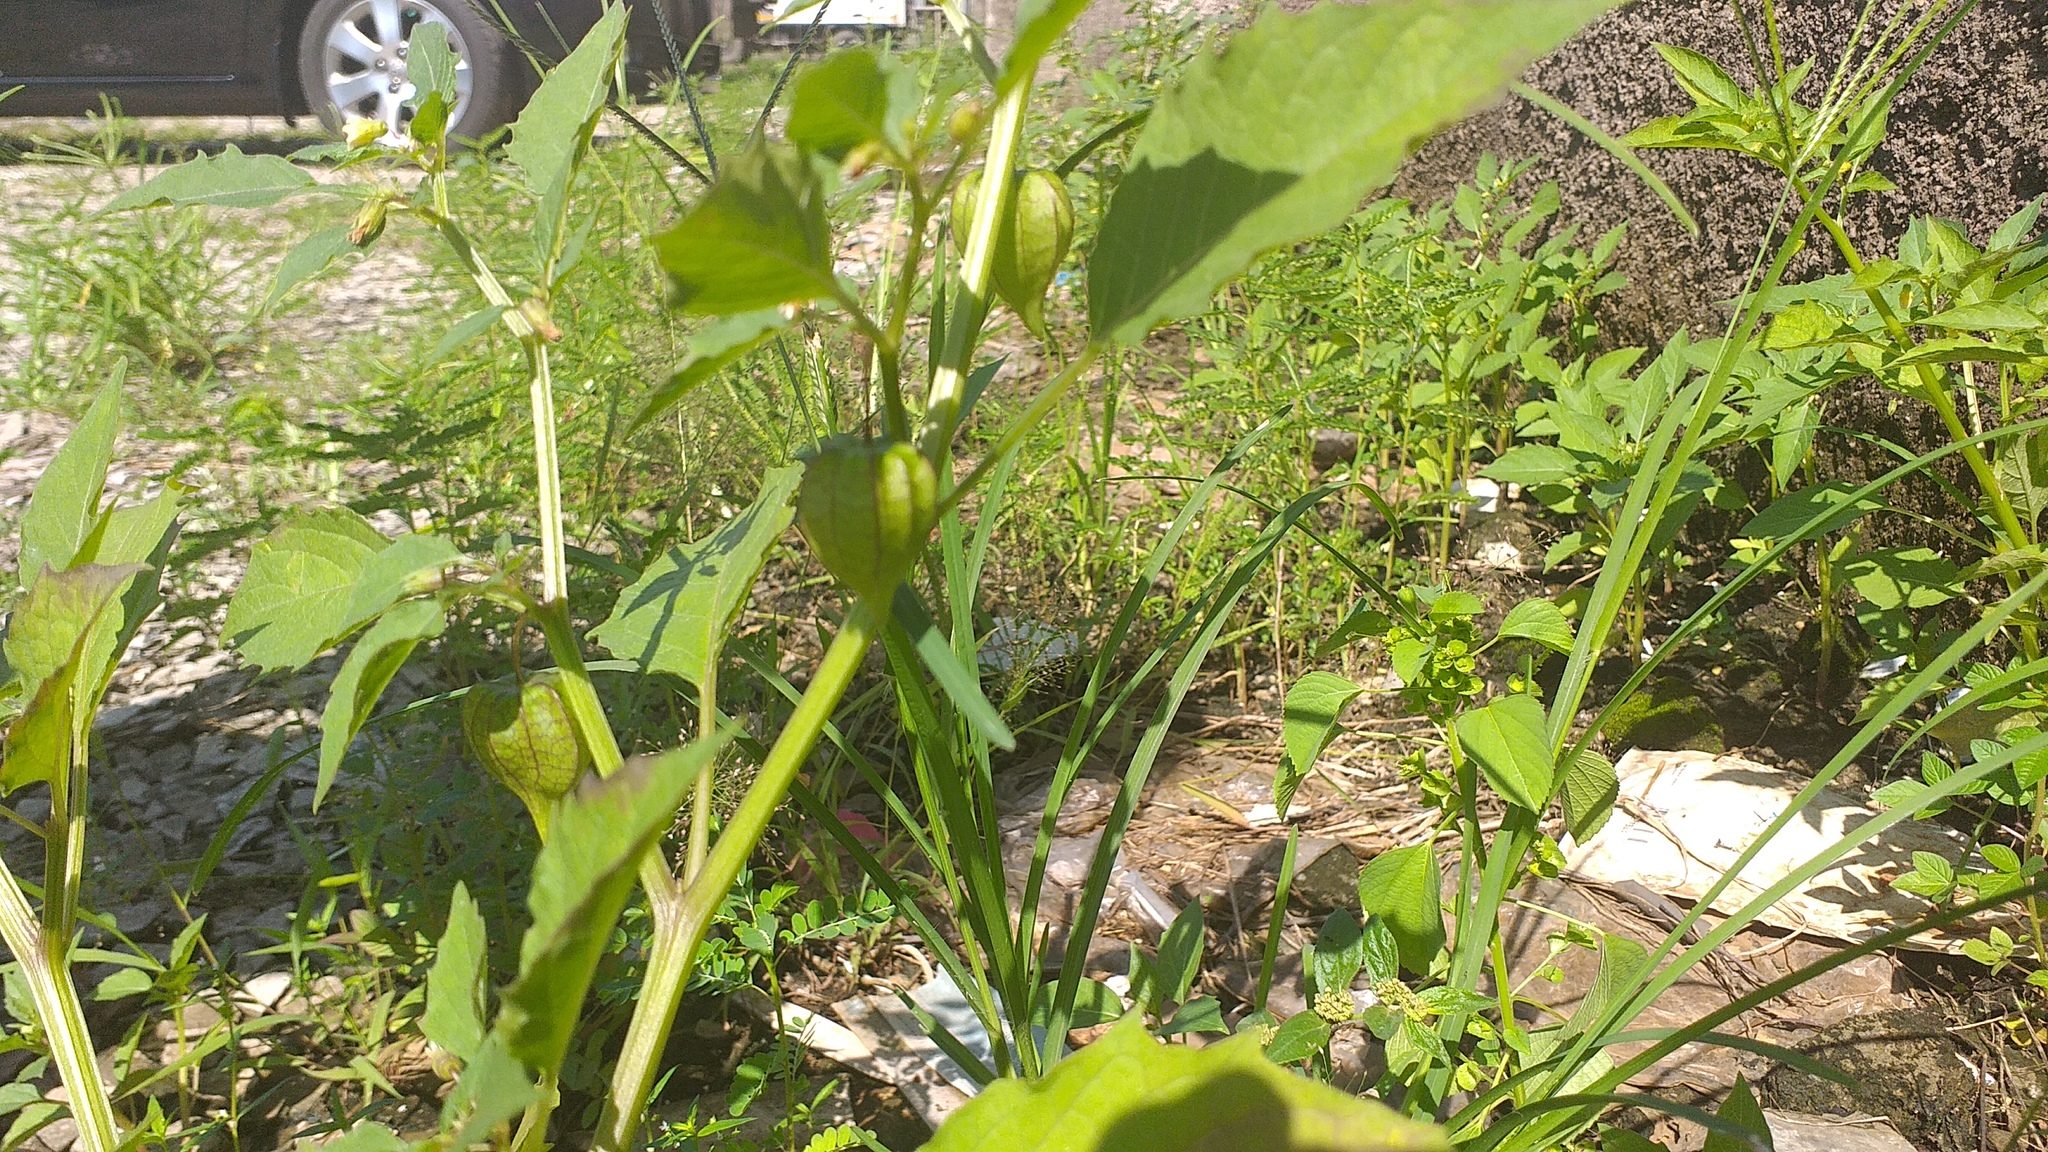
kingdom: Plantae
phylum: Tracheophyta
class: Magnoliopsida
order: Solanales
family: Solanaceae
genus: Physalis
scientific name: Physalis angulata
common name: Angular winter-cherry
